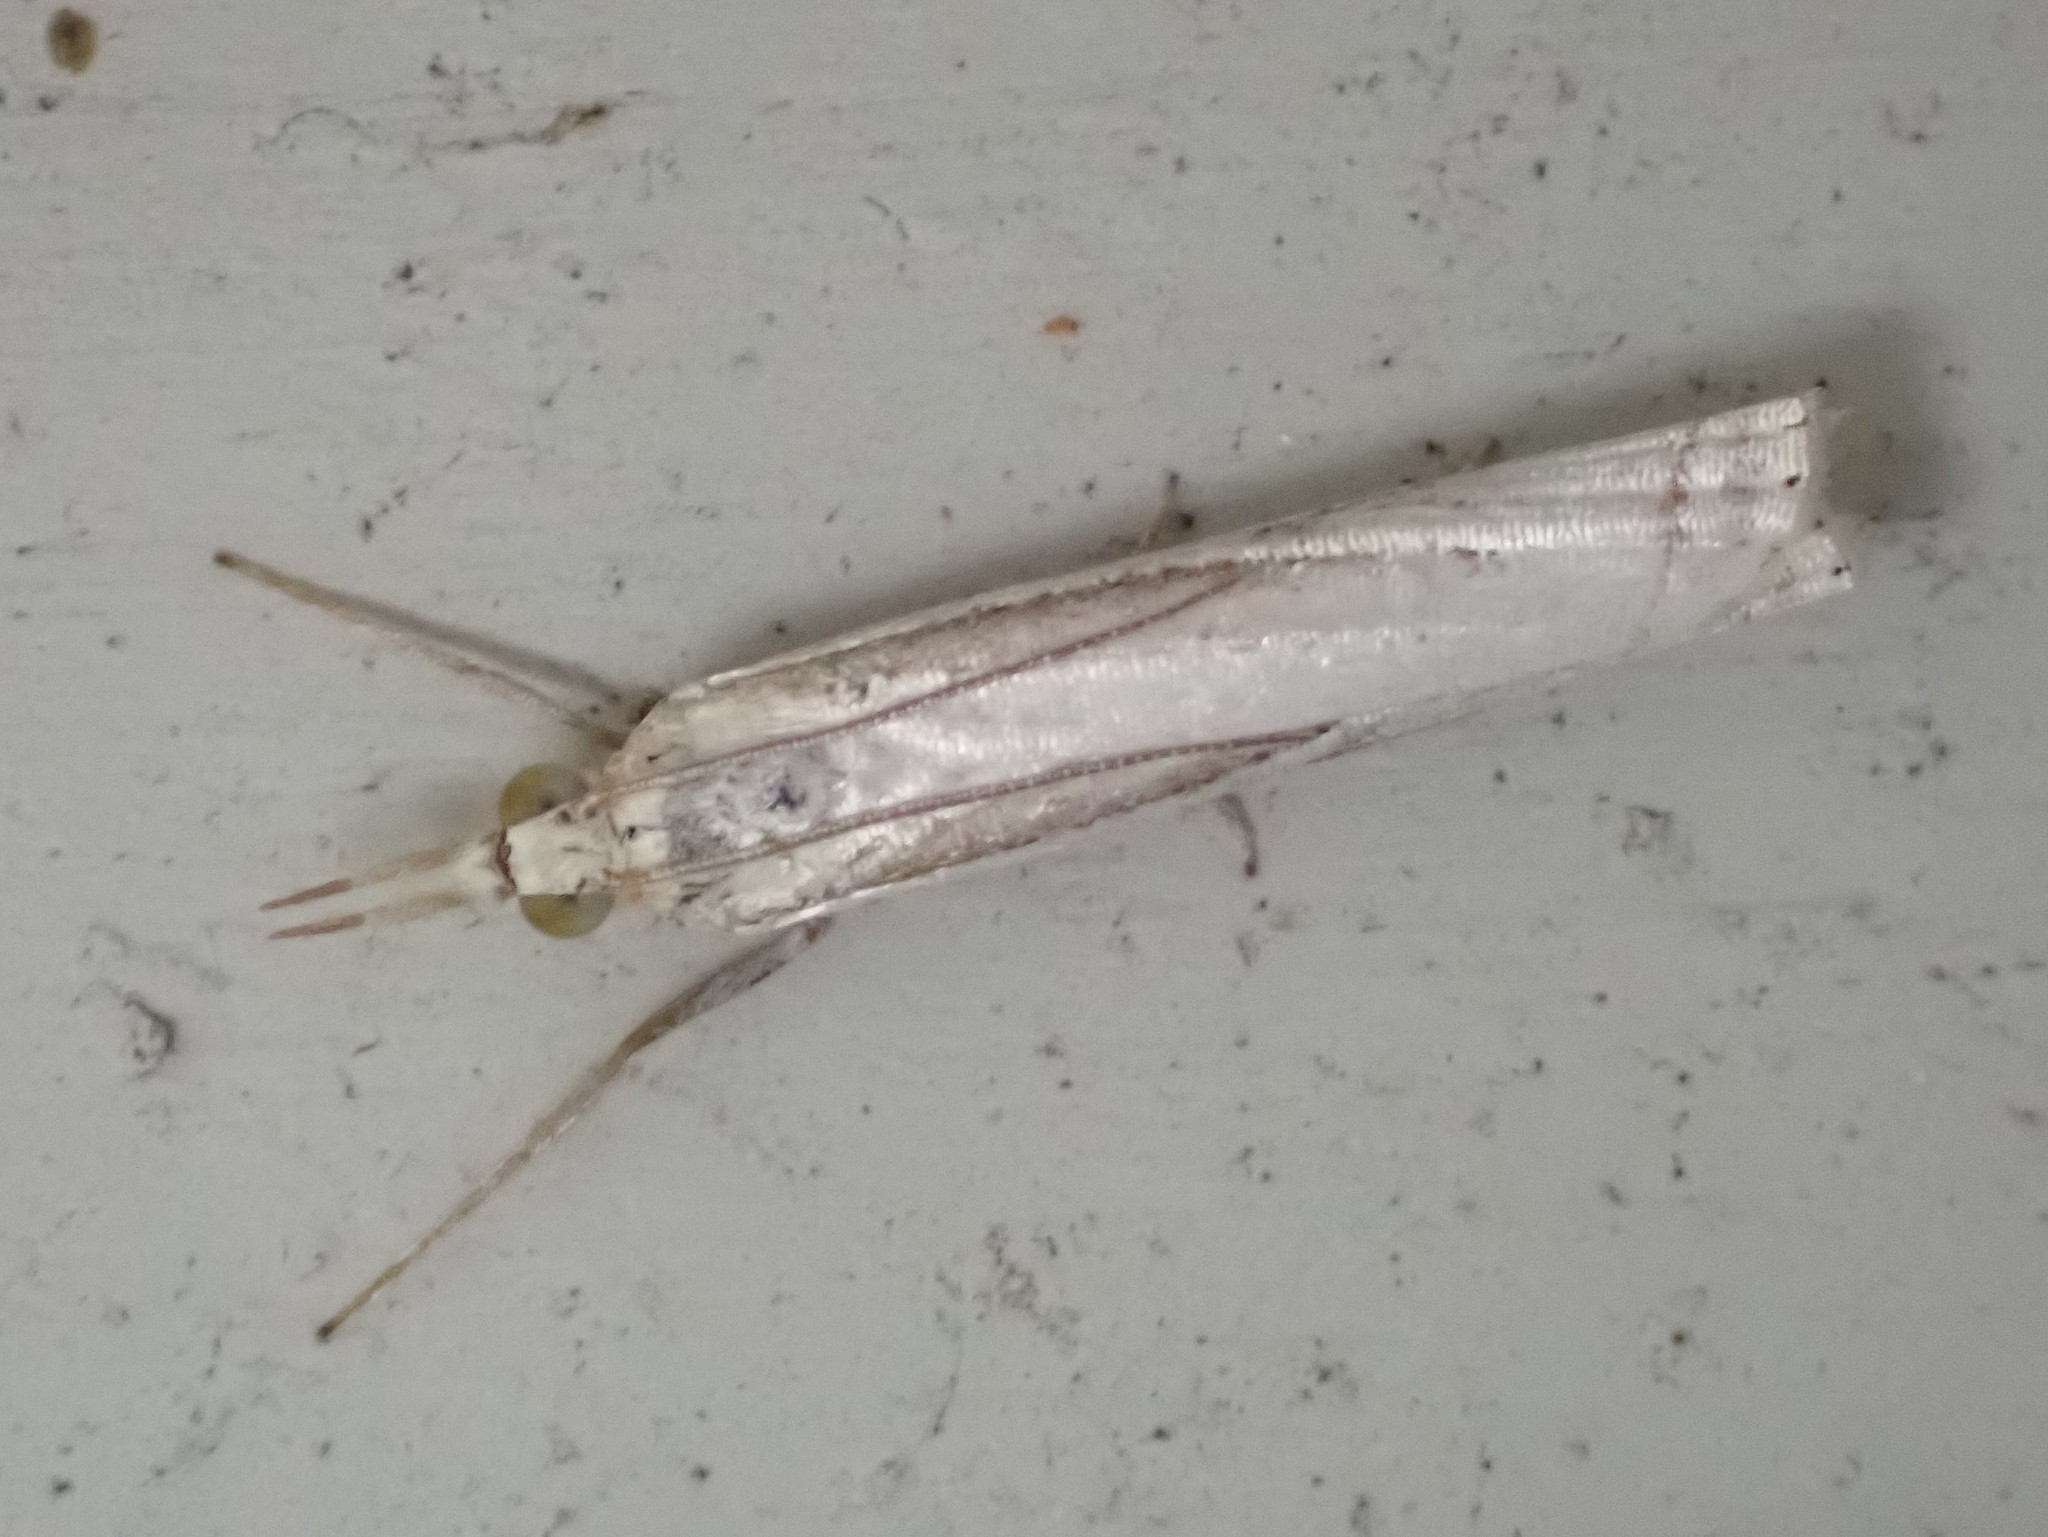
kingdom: Animalia
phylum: Arthropoda
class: Insecta
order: Lepidoptera
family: Crambidae
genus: Crambus
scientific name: Crambus saltuellus
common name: Pasture grass-veneer
